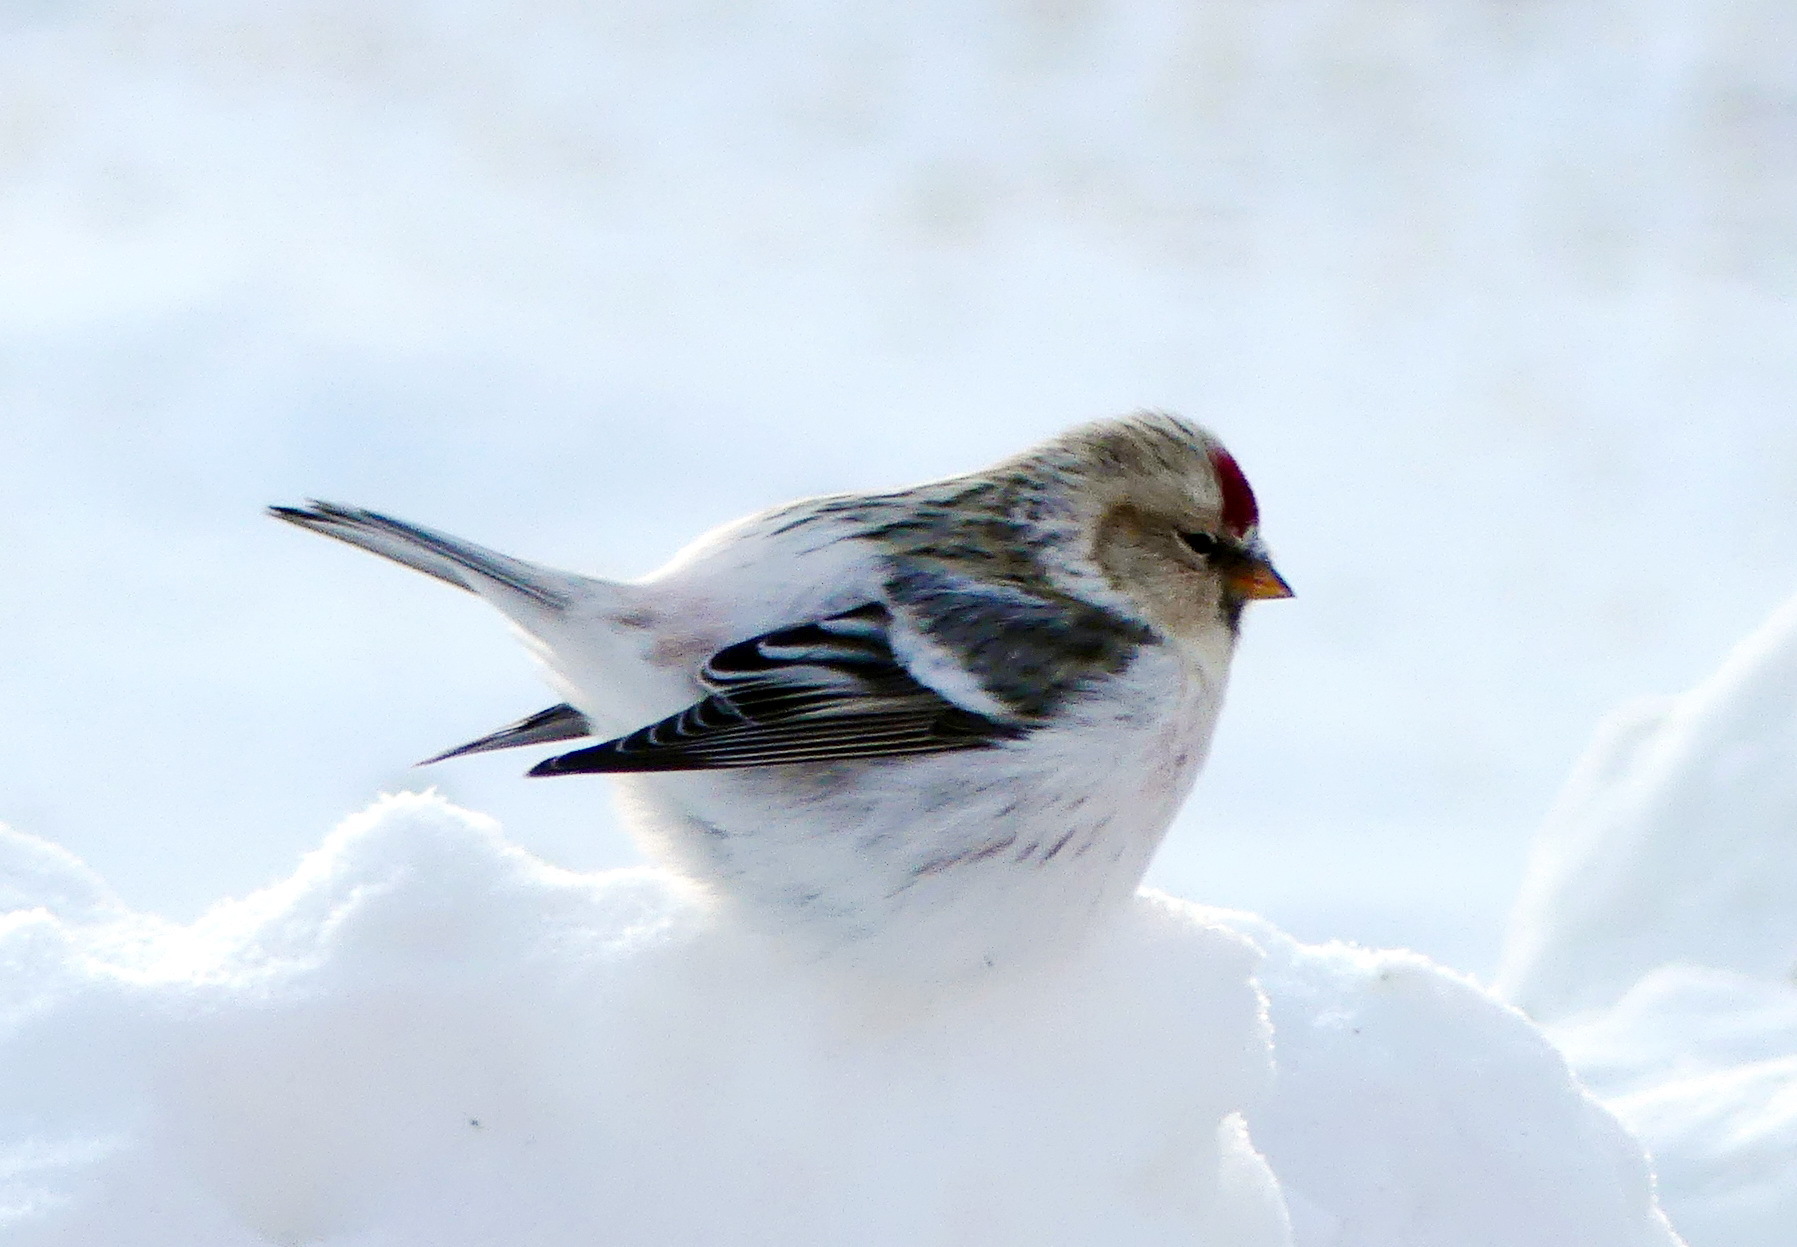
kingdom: Animalia
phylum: Chordata
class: Aves
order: Passeriformes
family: Fringillidae
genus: Acanthis
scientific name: Acanthis hornemanni
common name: Arctic redpoll
